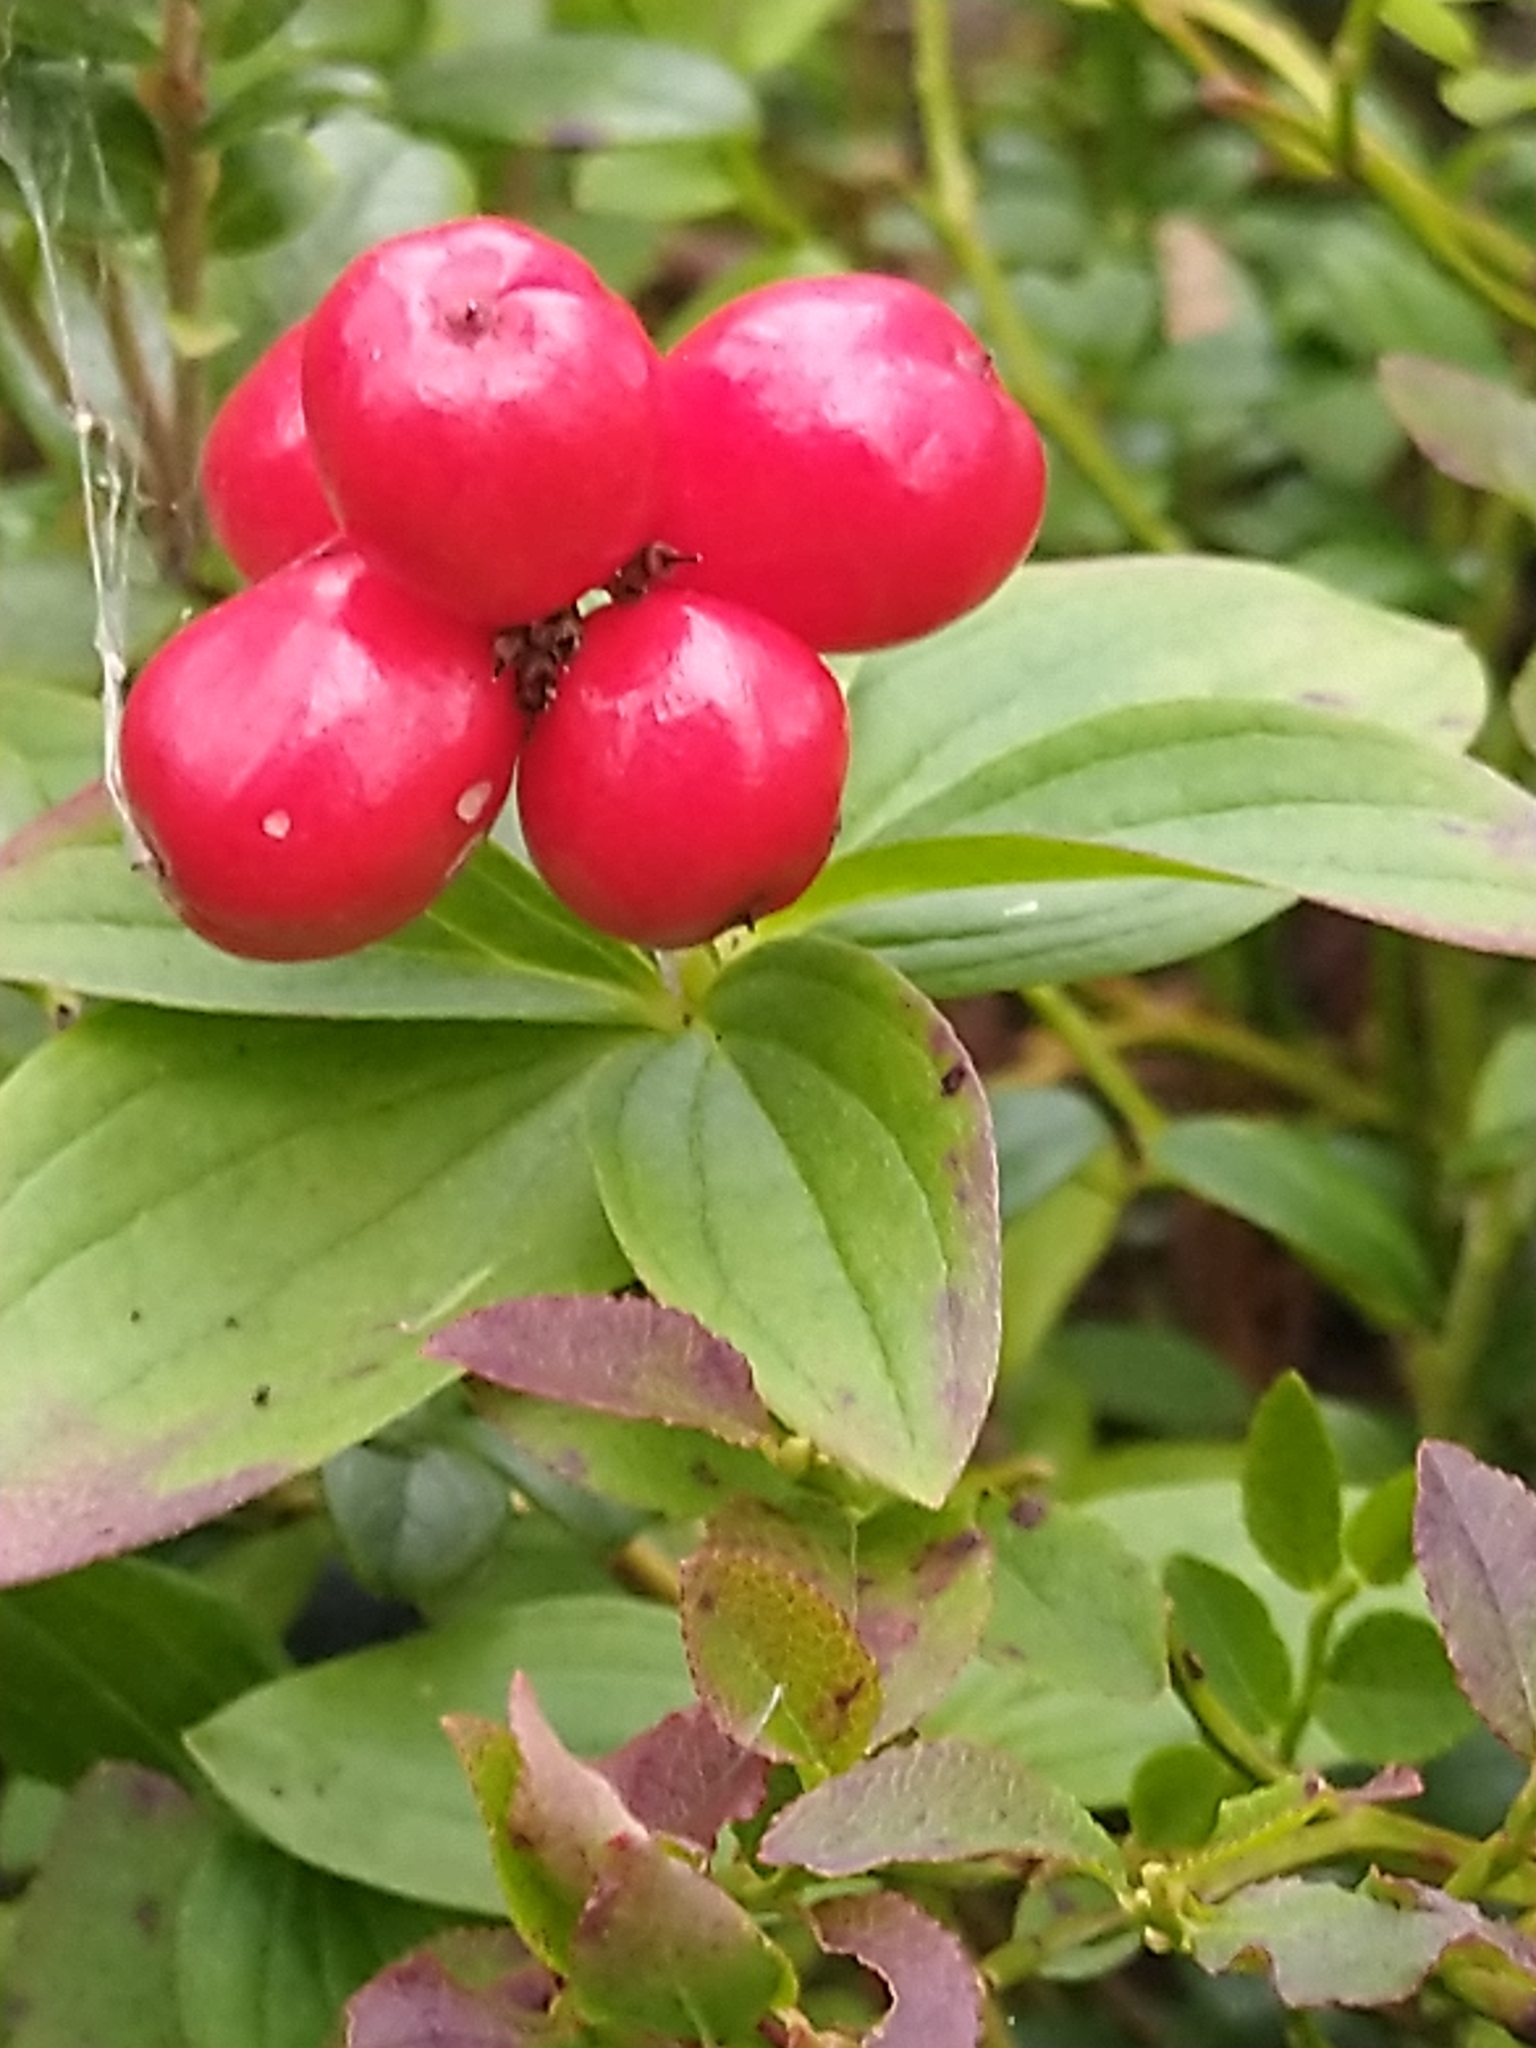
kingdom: Plantae
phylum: Tracheophyta
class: Magnoliopsida
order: Cornales
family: Cornaceae
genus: Cornus
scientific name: Cornus suecica
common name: Dwarf cornel
